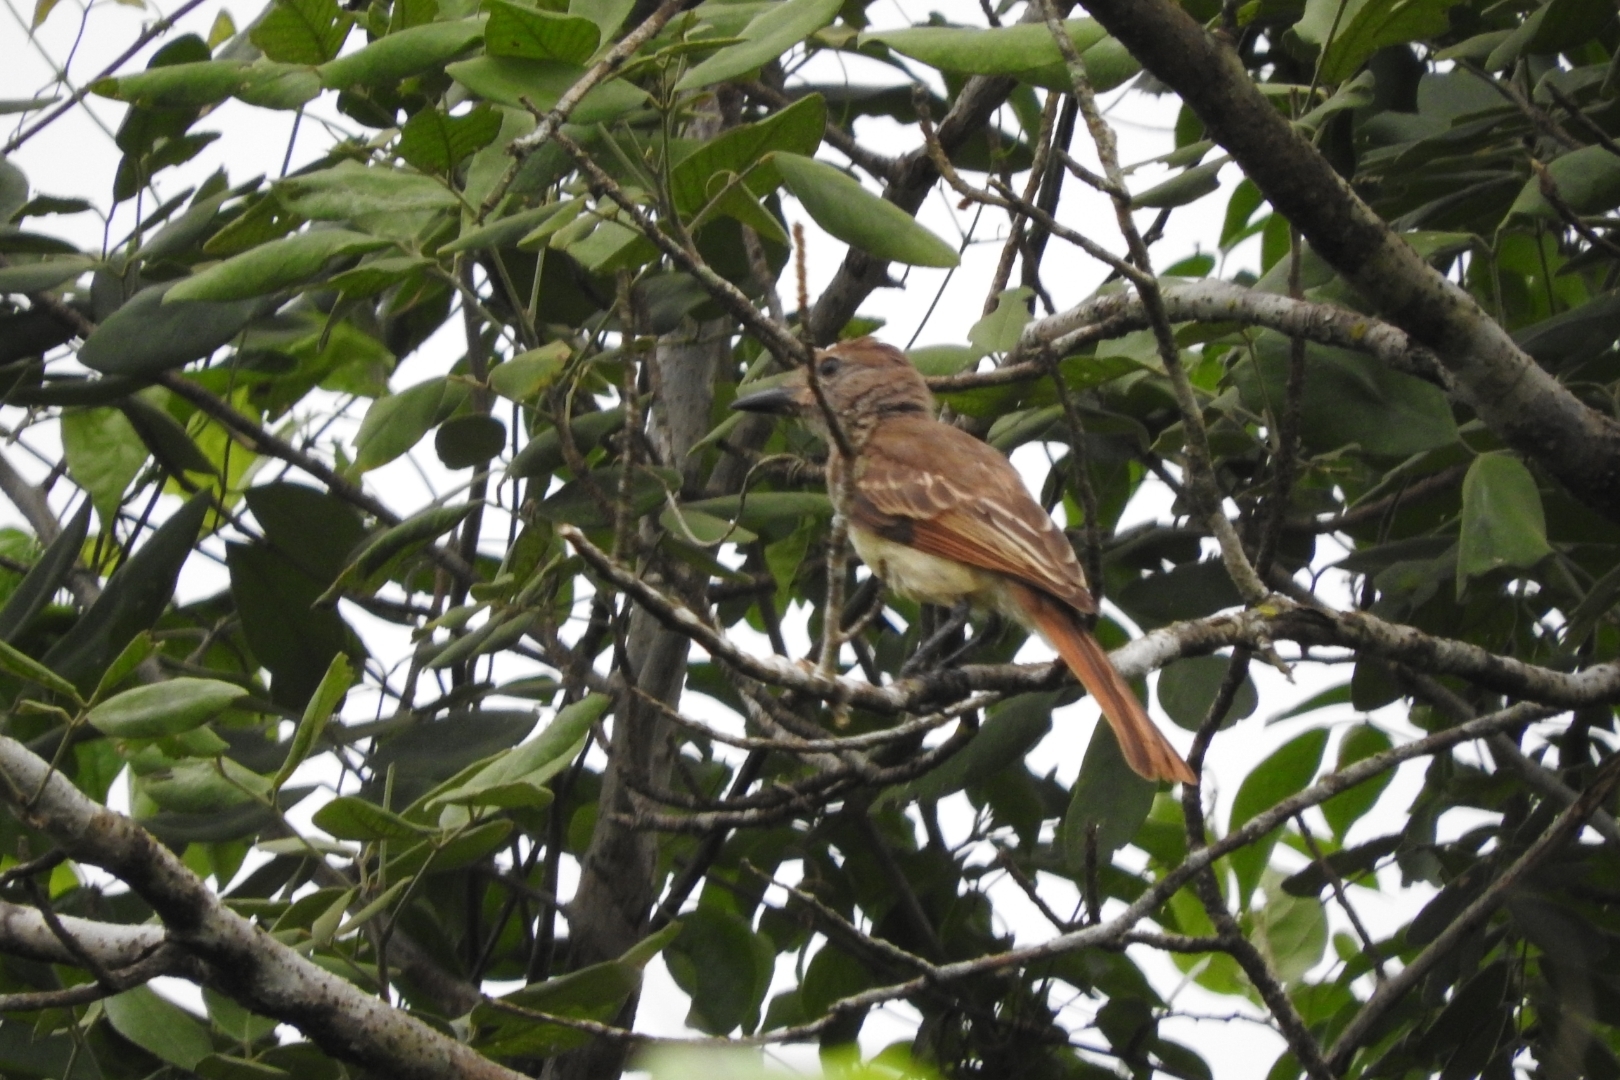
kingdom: Animalia
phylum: Chordata
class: Aves
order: Passeriformes
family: Tyrannidae
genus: Myiarchus
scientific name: Myiarchus tyrannulus
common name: Brown-crested flycatcher
